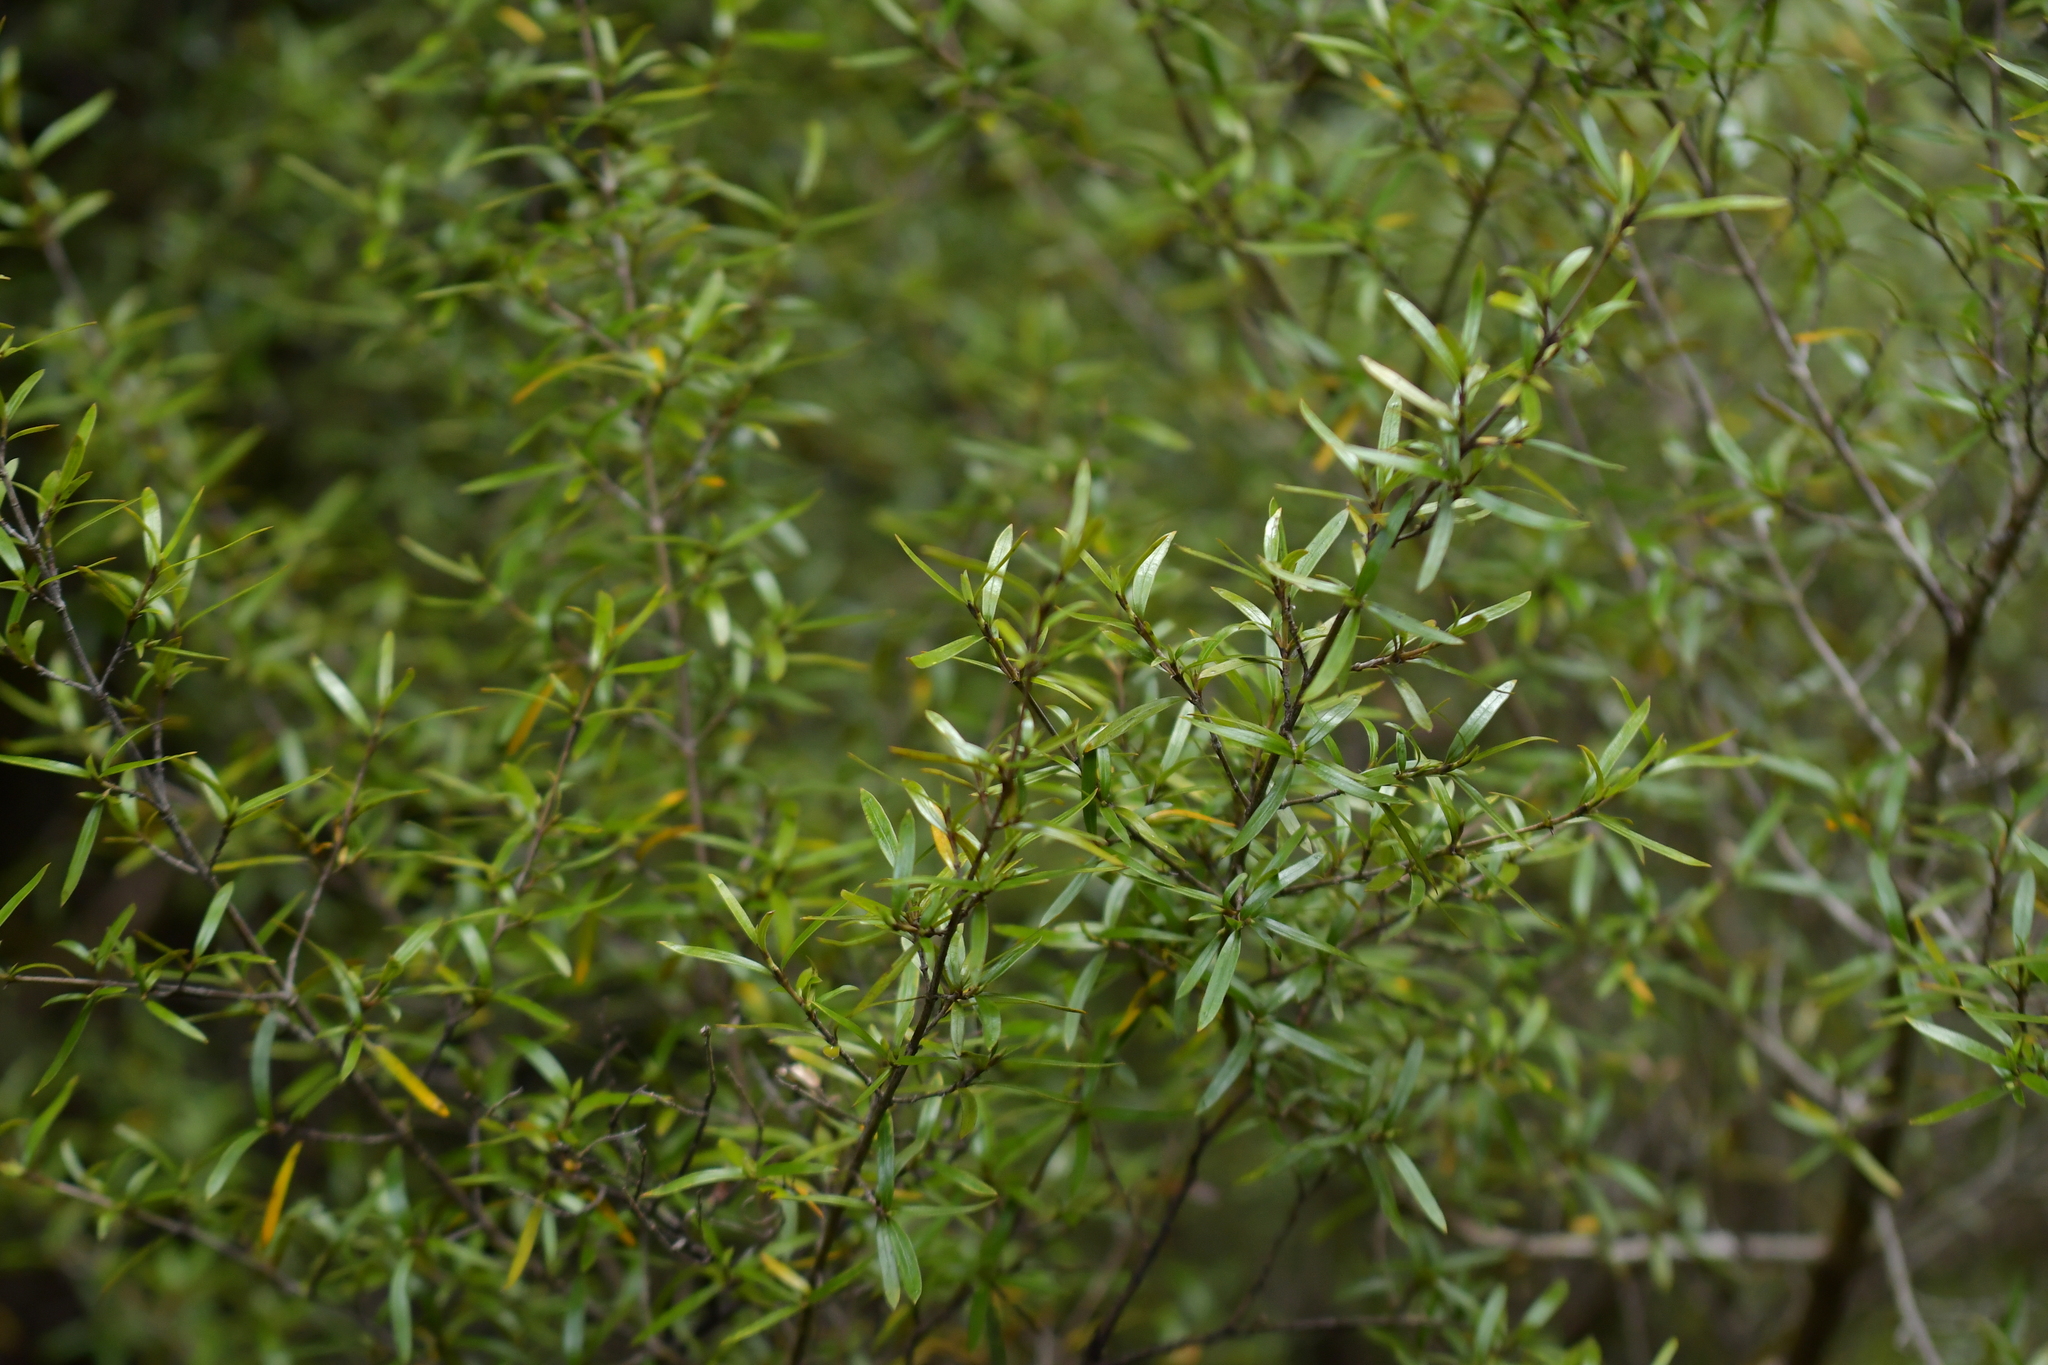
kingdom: Plantae
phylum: Tracheophyta
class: Magnoliopsida
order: Gentianales
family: Rubiaceae
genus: Coprosma
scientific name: Coprosma linariifolia
